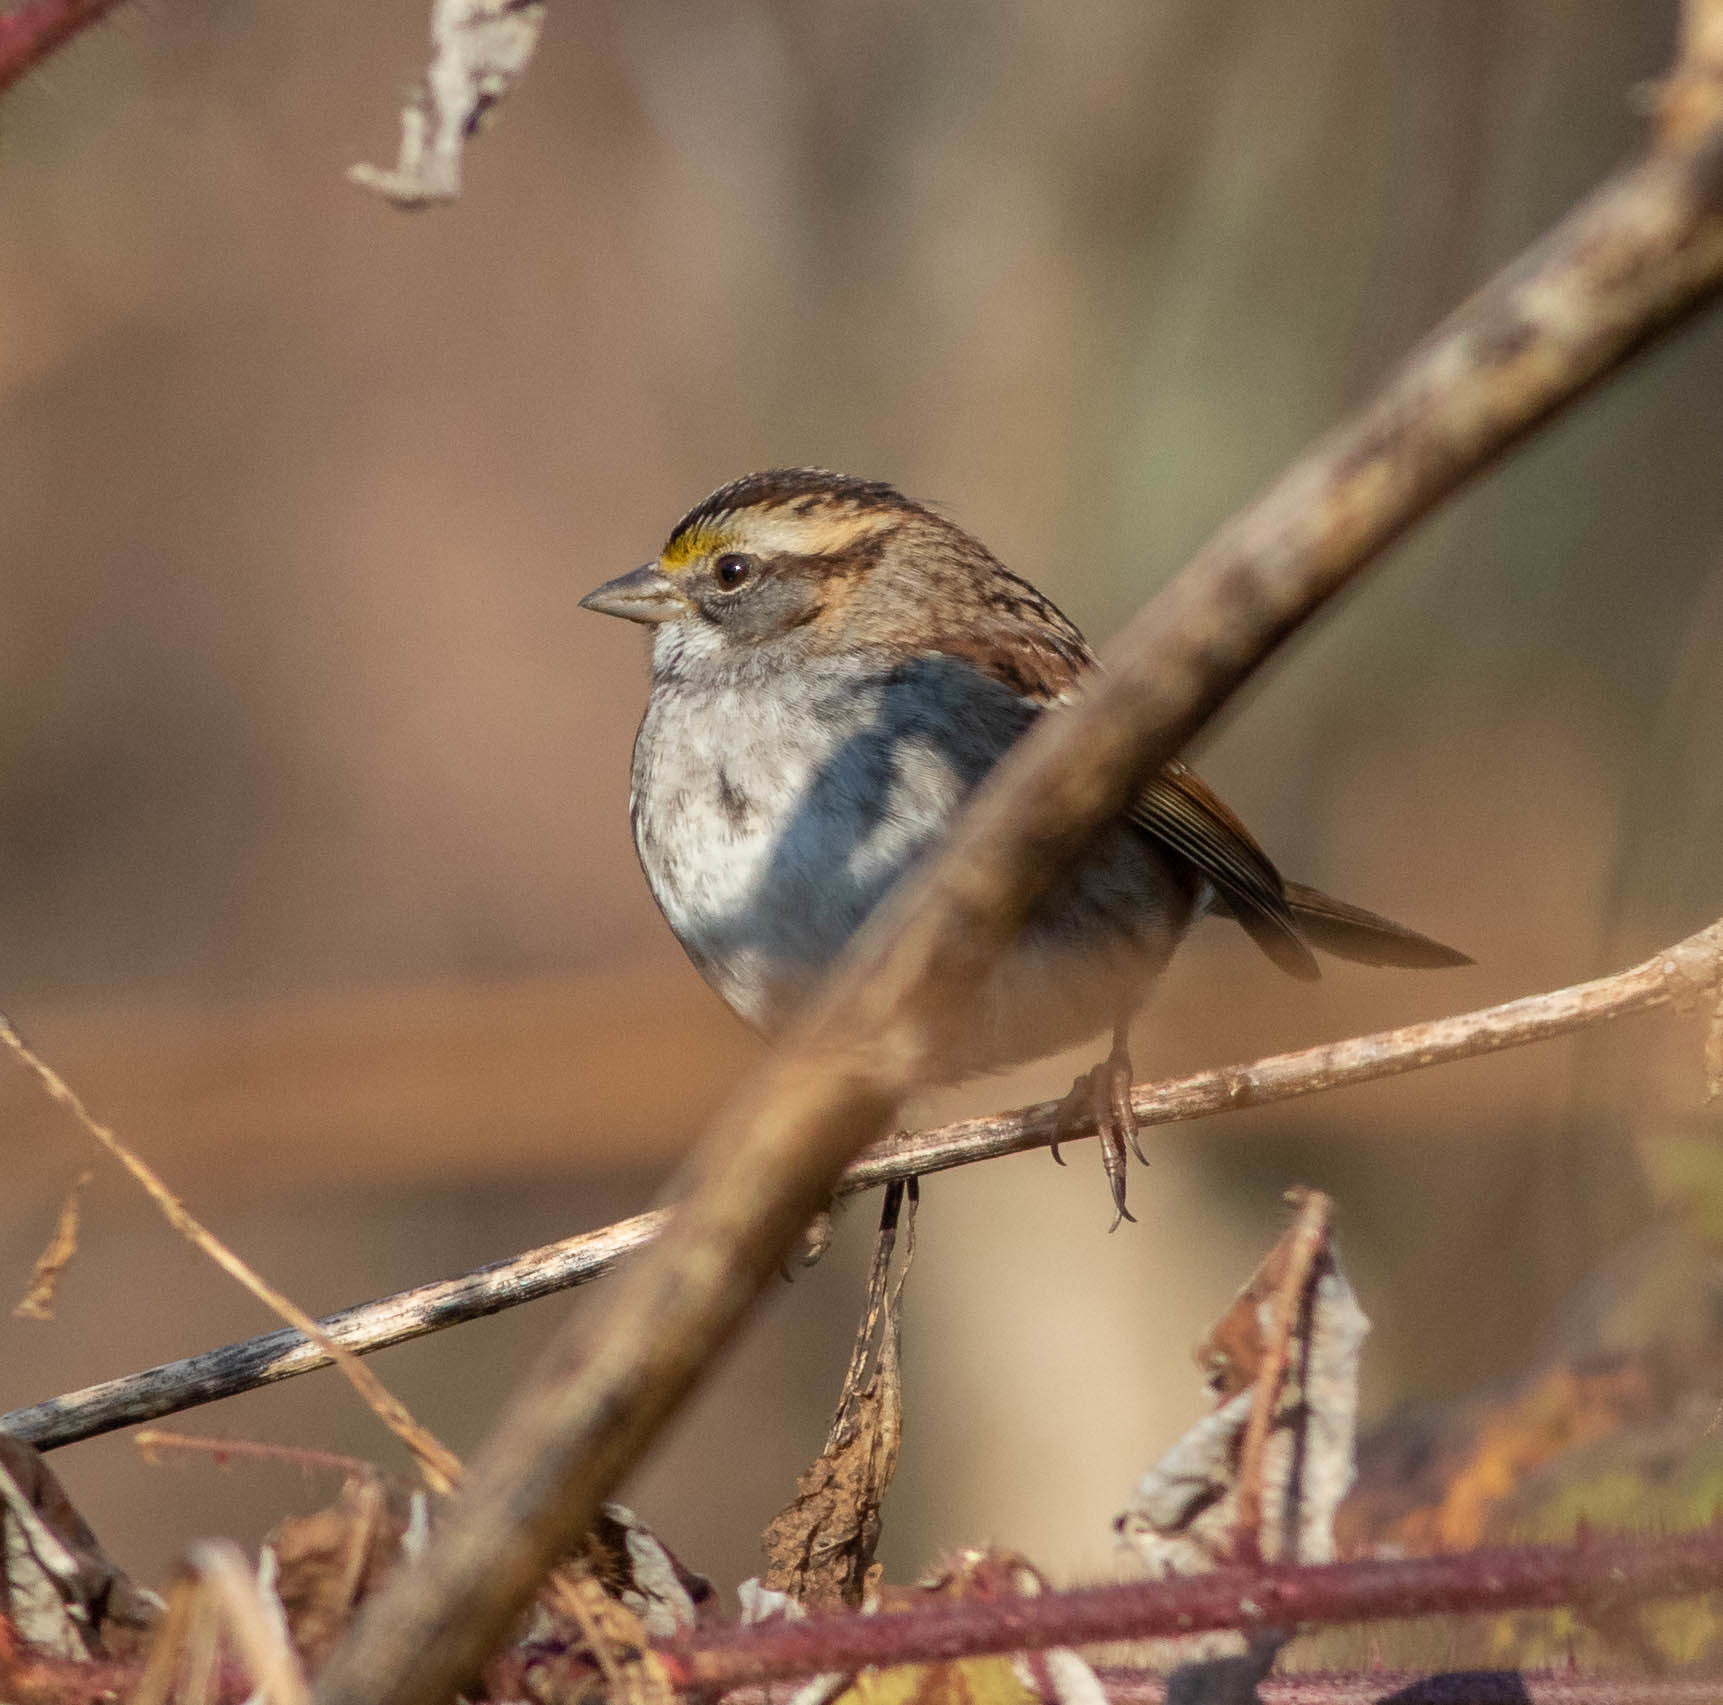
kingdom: Animalia
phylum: Chordata
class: Aves
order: Passeriformes
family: Passerellidae
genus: Zonotrichia
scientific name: Zonotrichia albicollis
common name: White-throated sparrow
